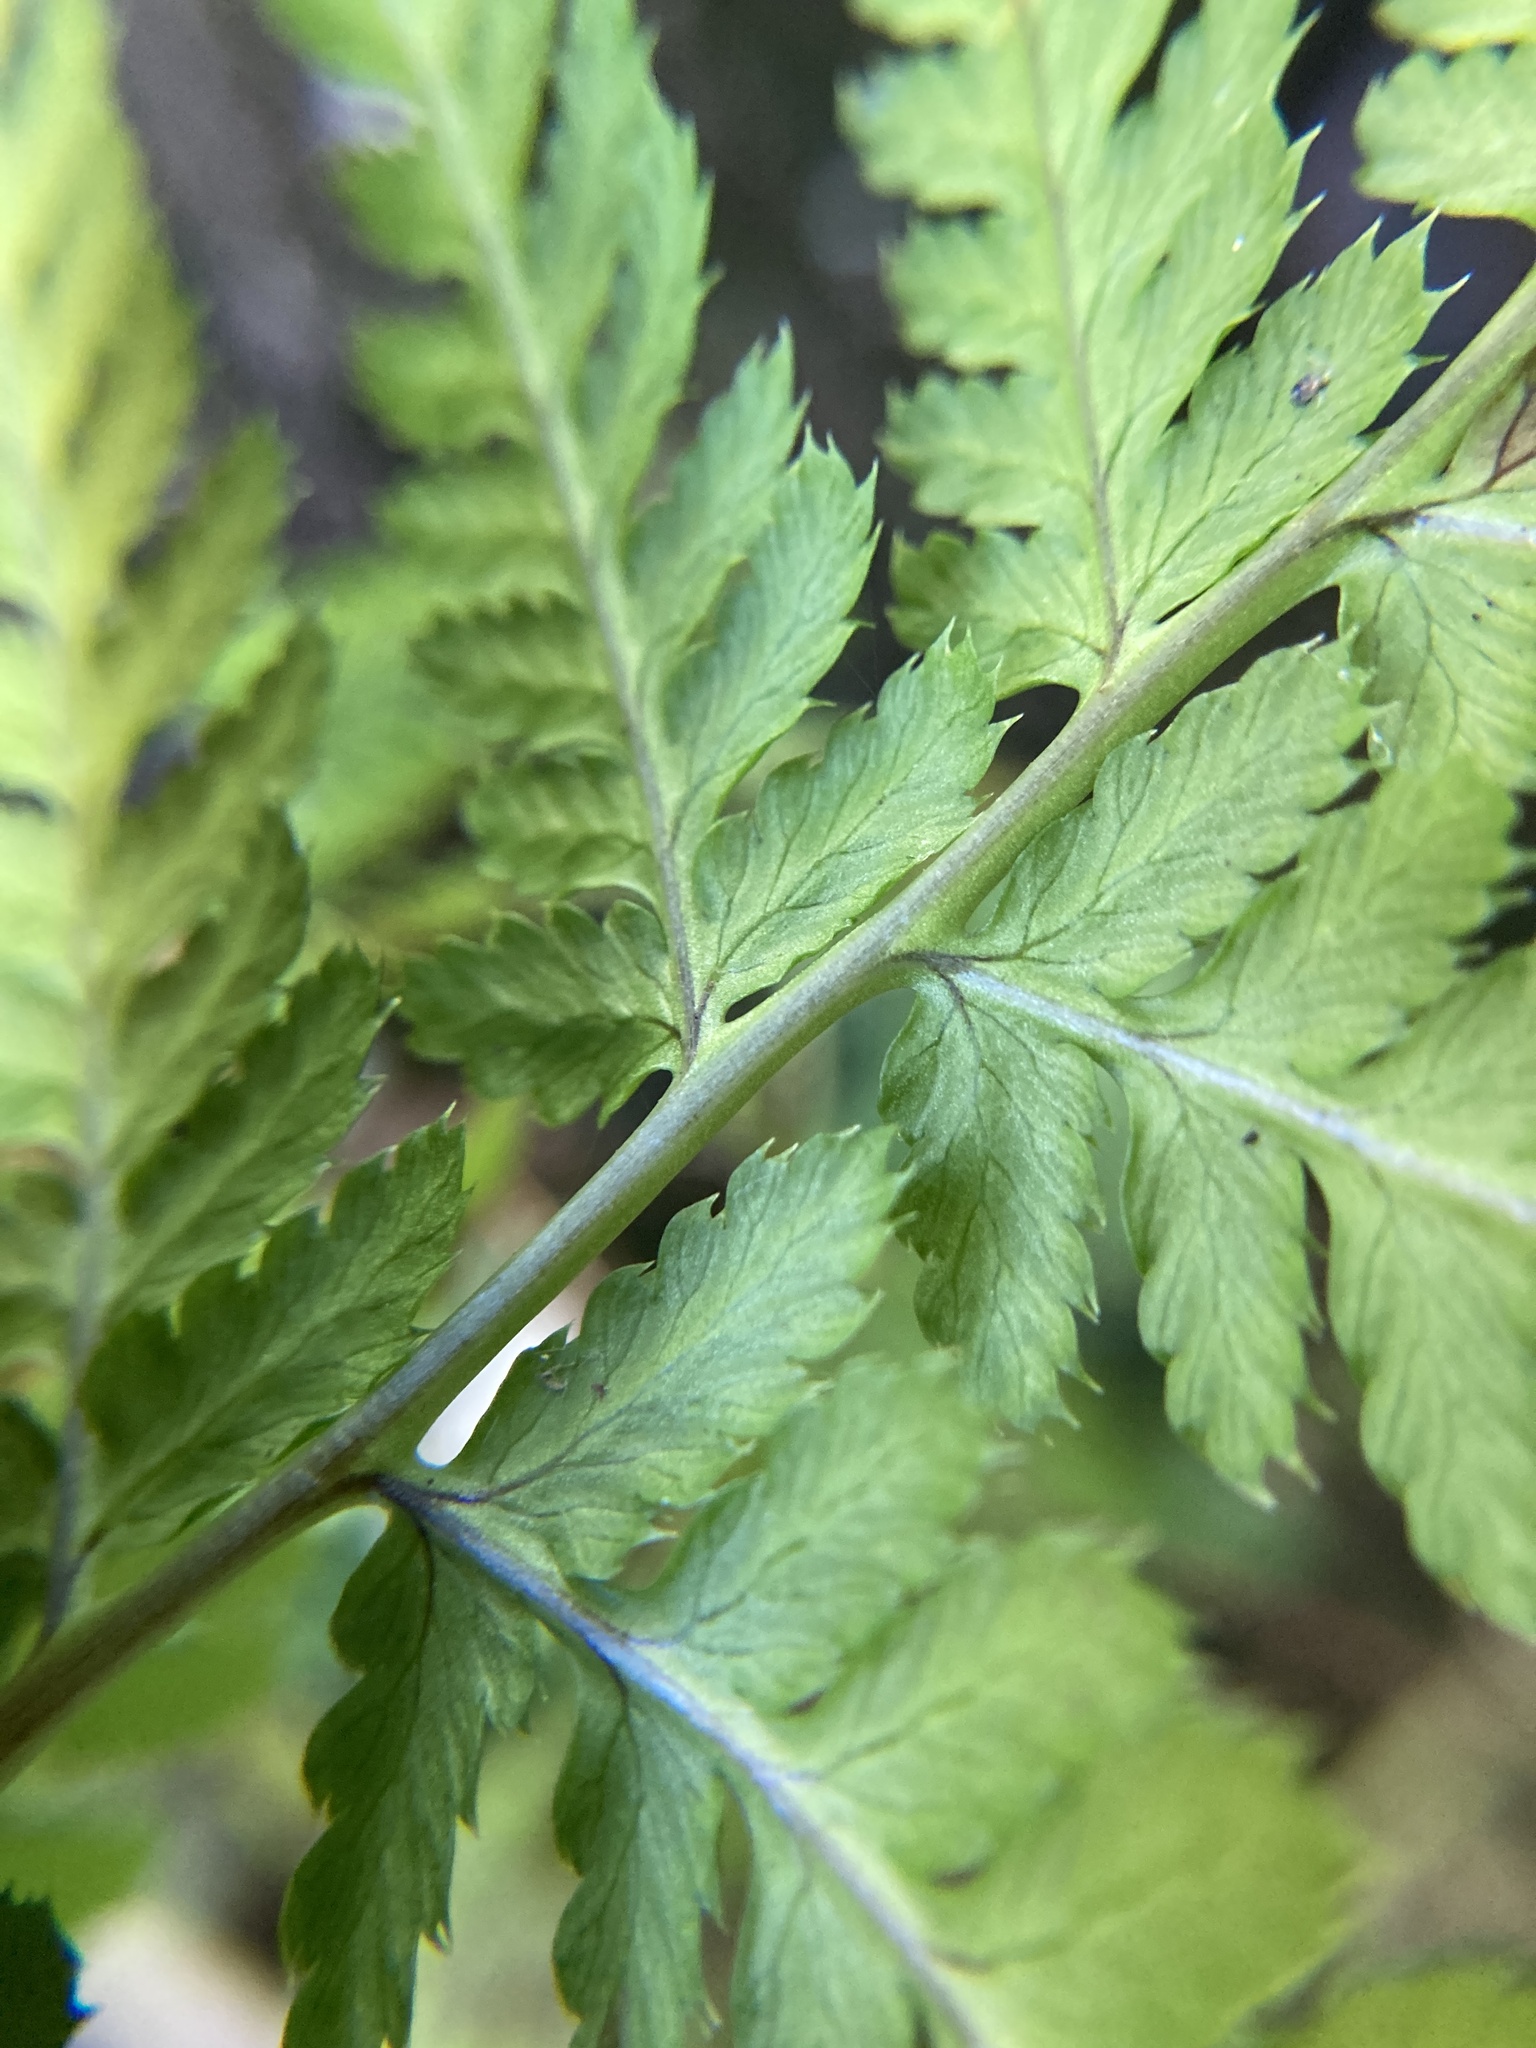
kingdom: Plantae
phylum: Tracheophyta
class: Polypodiopsida
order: Polypodiales
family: Dryopteridaceae
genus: Dryopteris
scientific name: Dryopteris carthusiana
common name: Narrow buckler-fern
